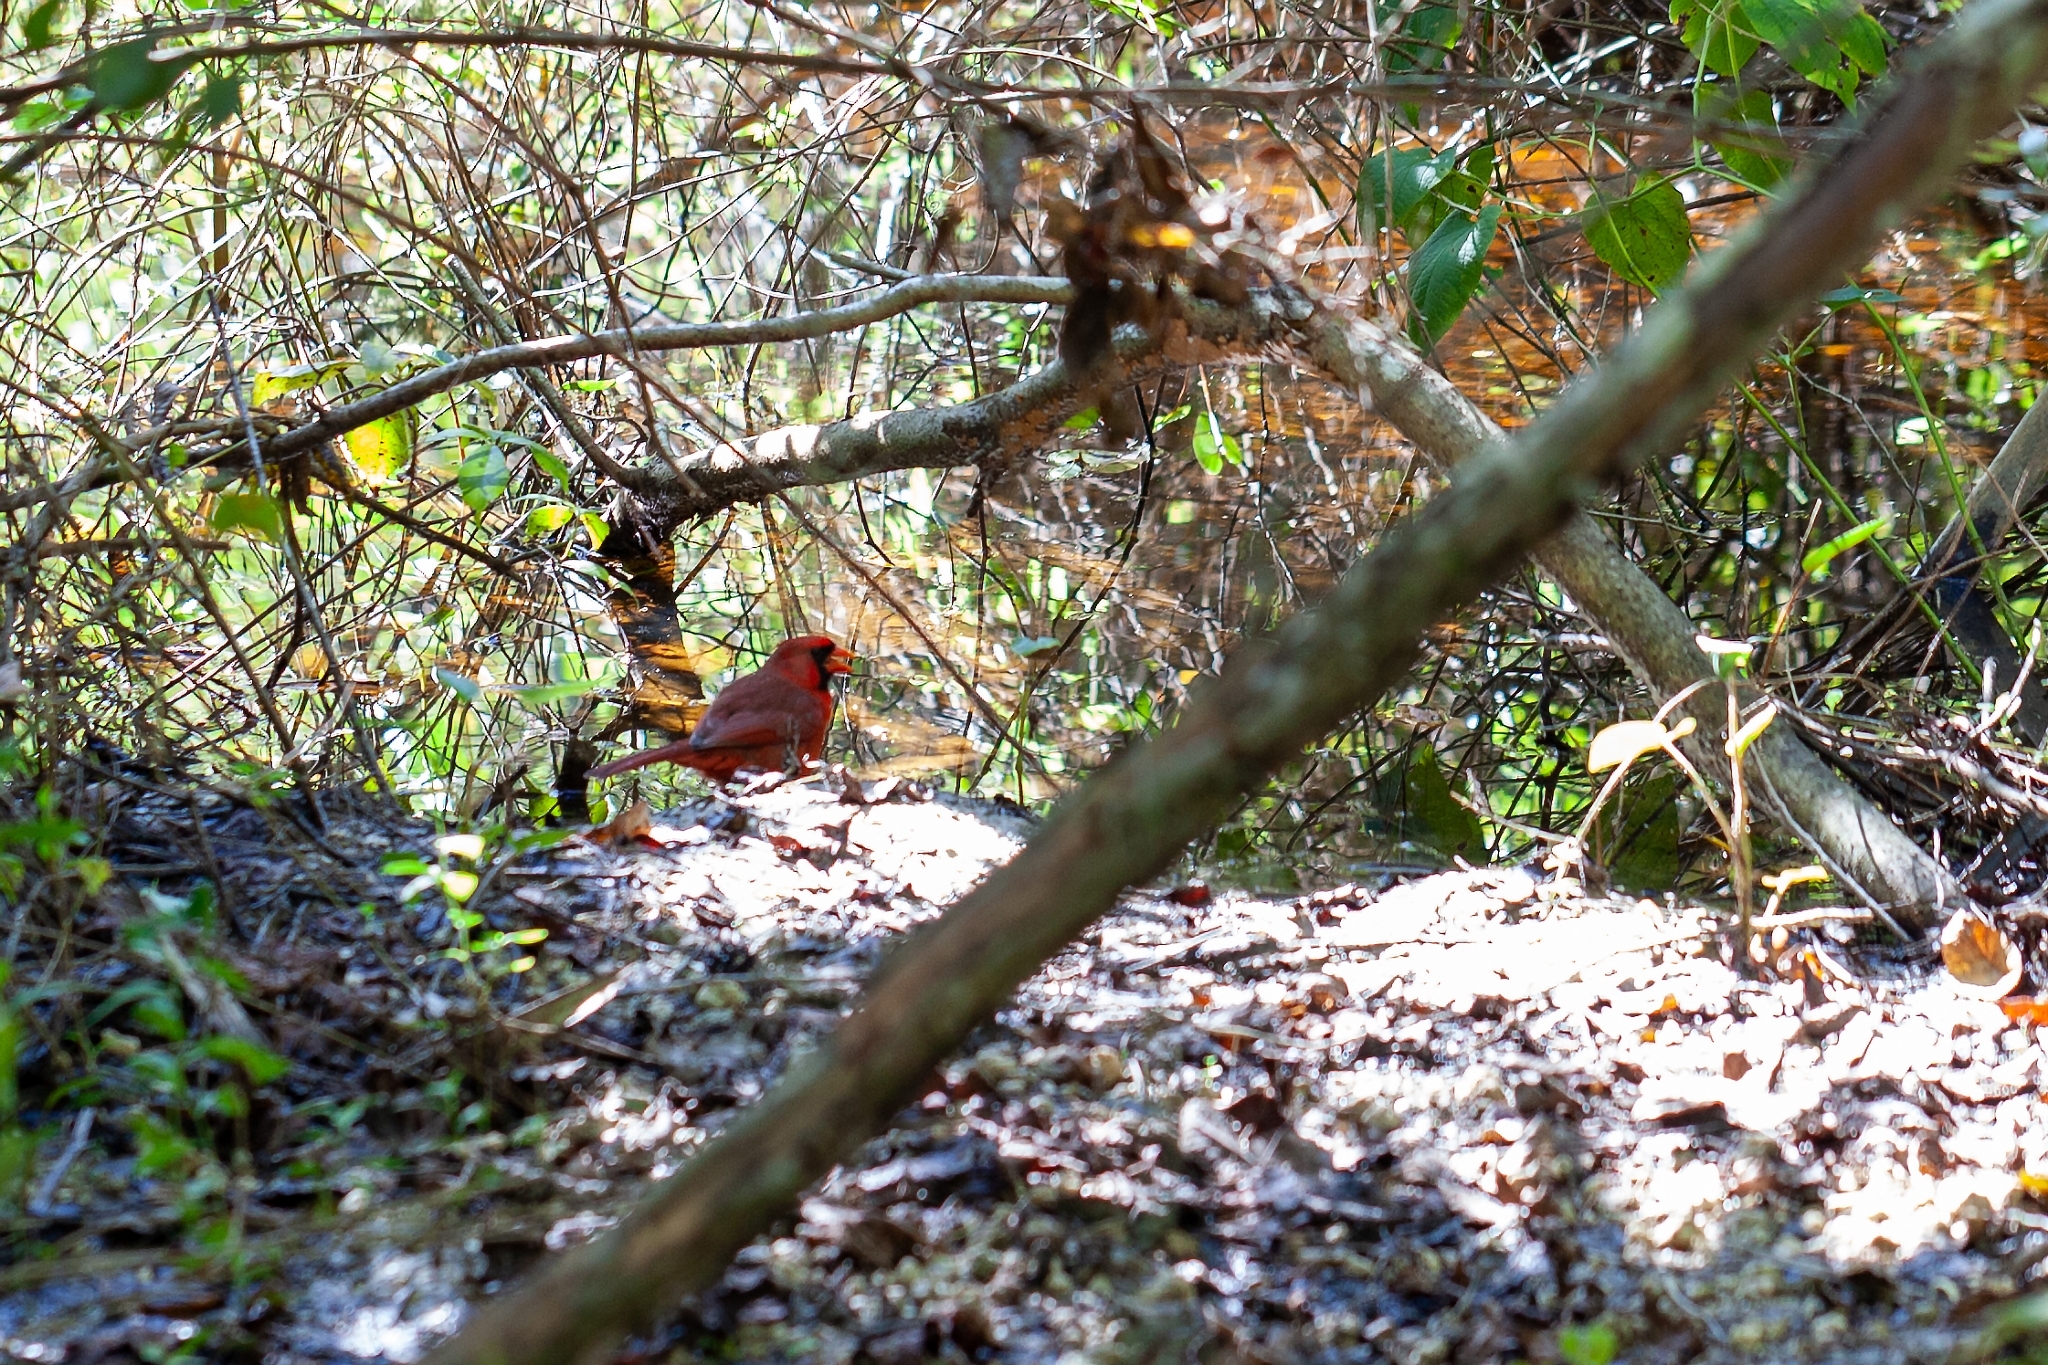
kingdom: Animalia
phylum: Chordata
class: Aves
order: Passeriformes
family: Cardinalidae
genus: Cardinalis
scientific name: Cardinalis cardinalis
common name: Northern cardinal
